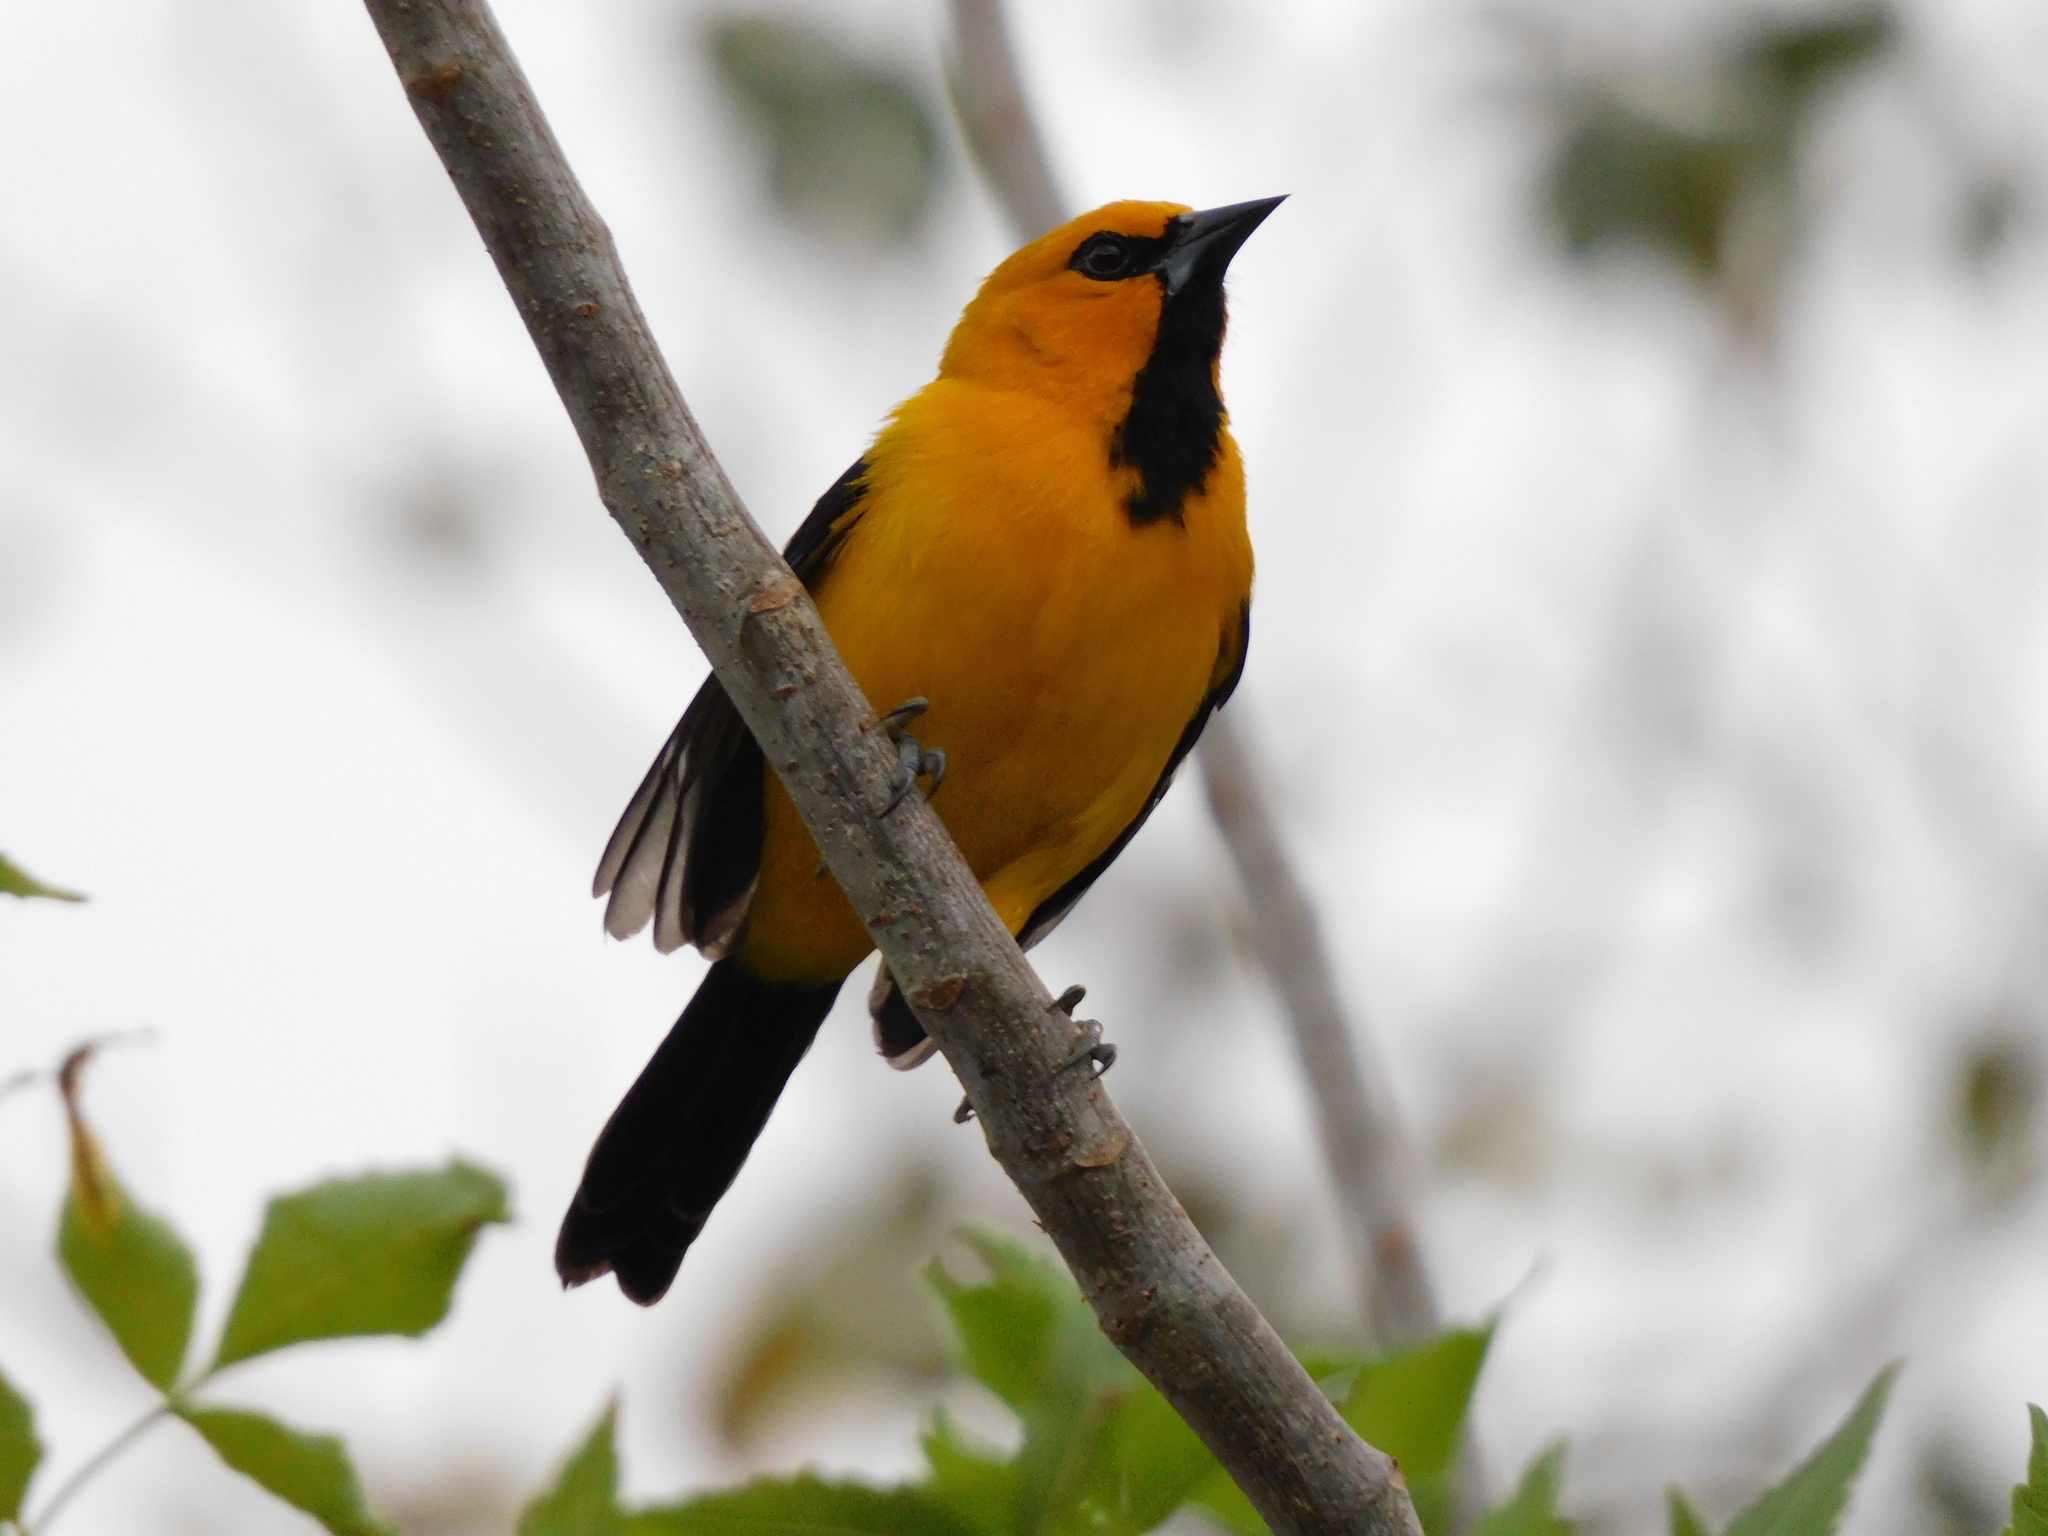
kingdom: Animalia
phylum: Chordata
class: Aves
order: Passeriformes
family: Icteridae
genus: Icterus
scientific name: Icterus nigrogularis
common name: Yellow oriole
